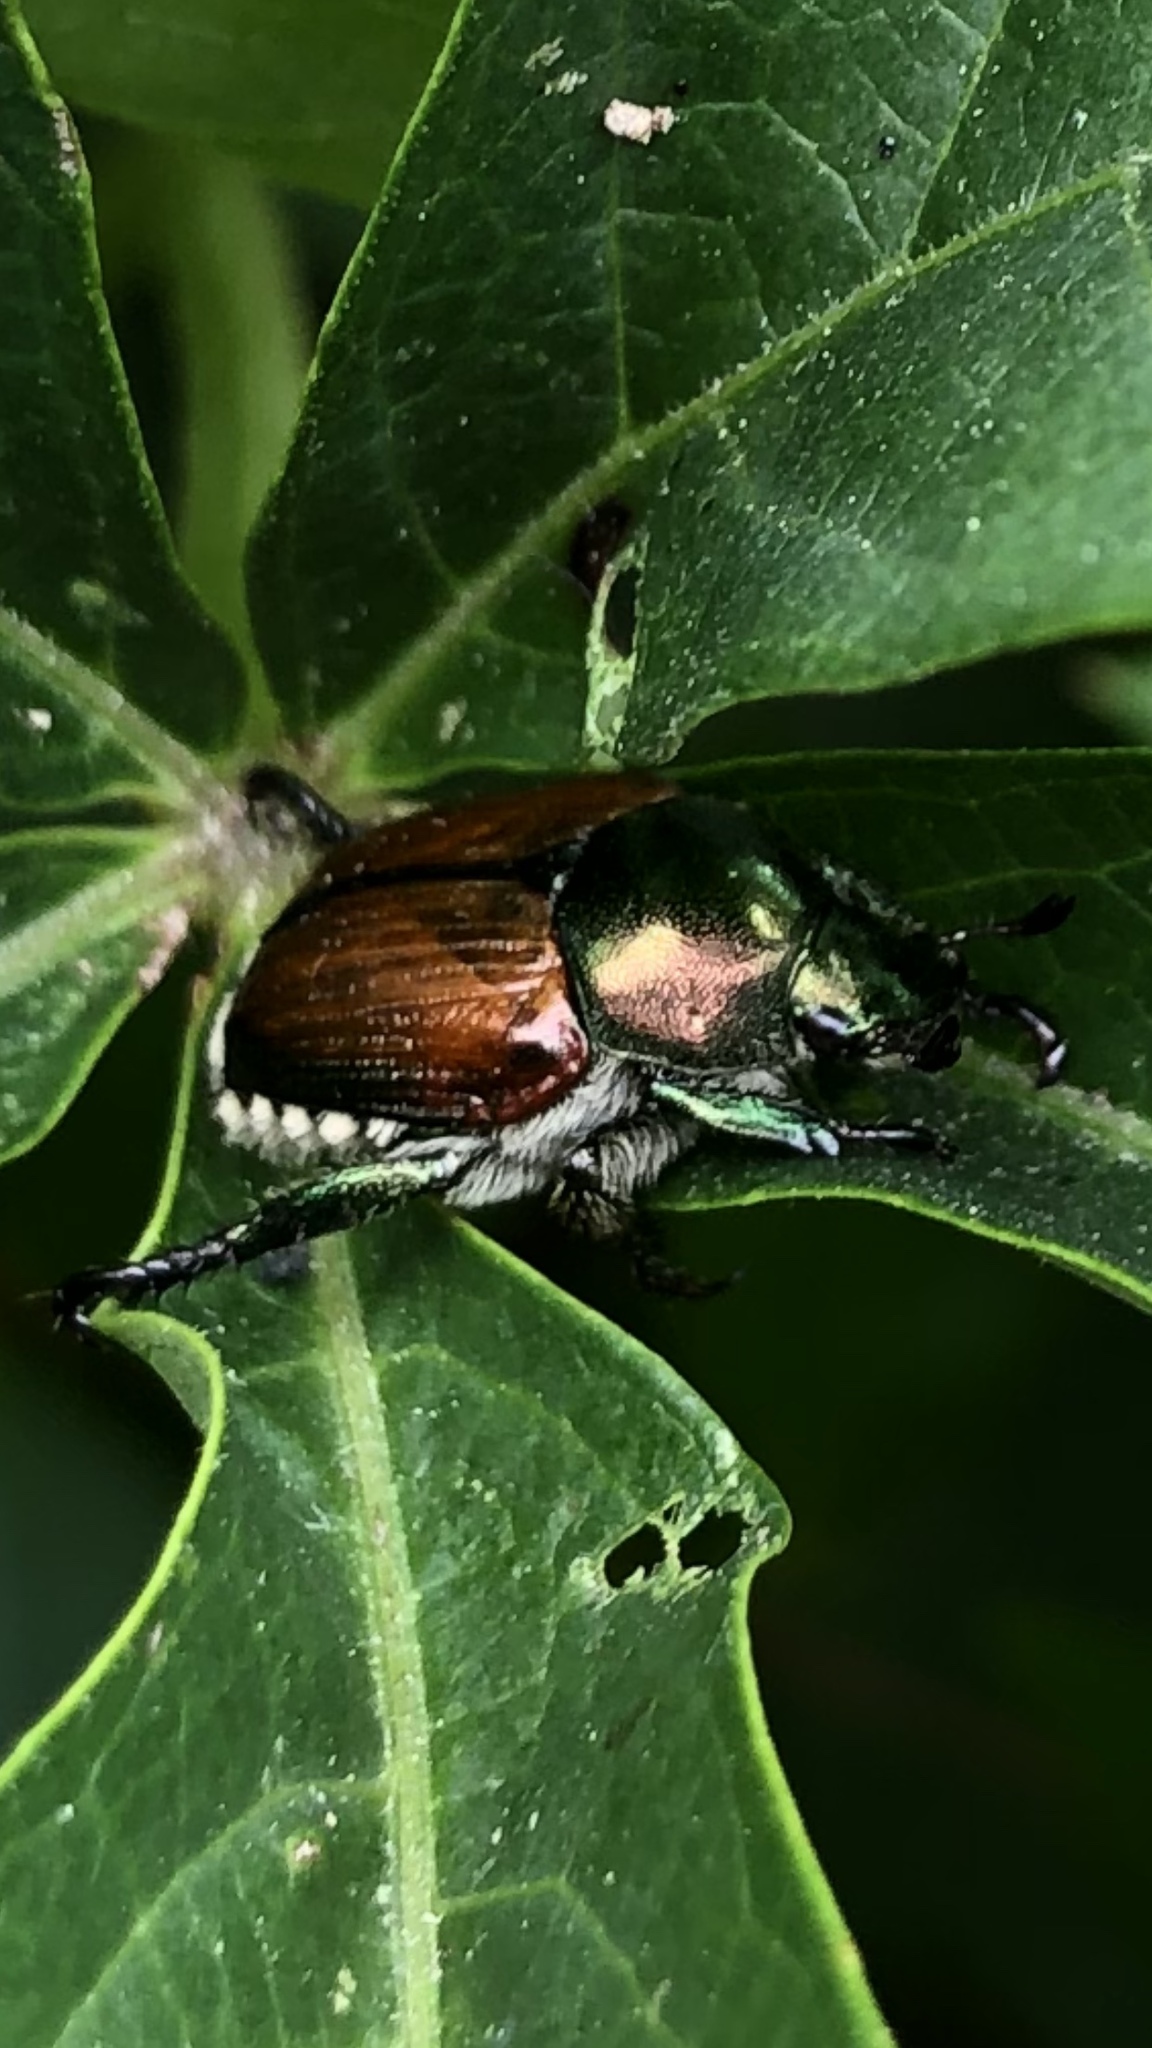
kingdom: Animalia
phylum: Arthropoda
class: Insecta
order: Coleoptera
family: Scarabaeidae
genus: Popillia
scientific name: Popillia japonica
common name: Japanese beetle
